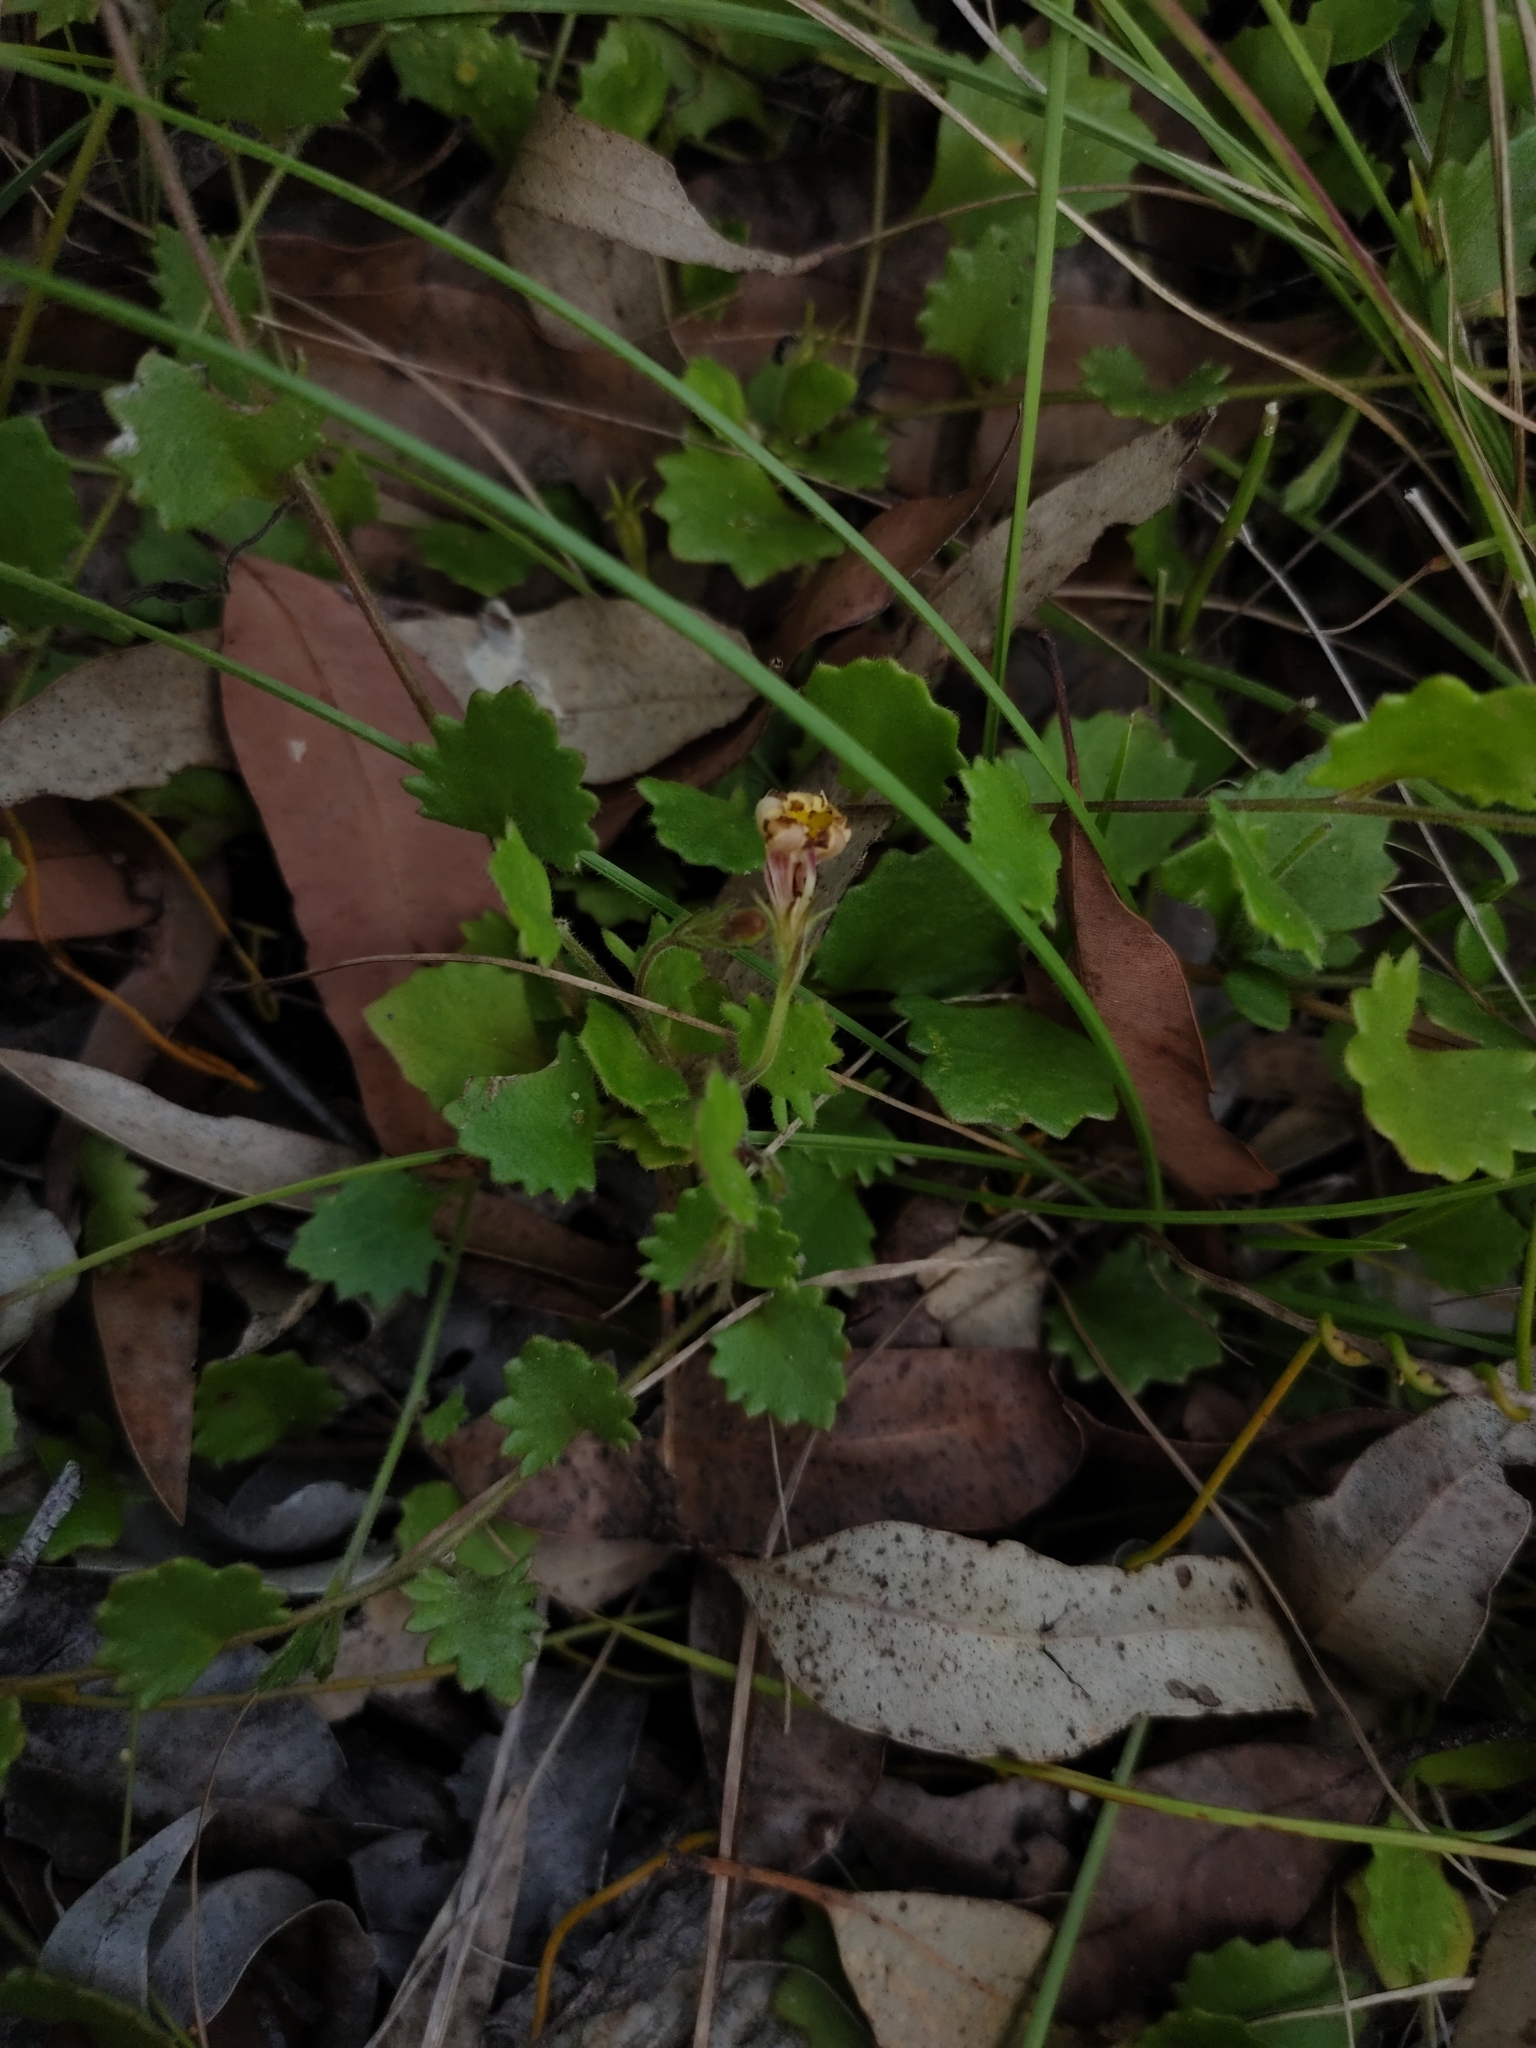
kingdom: Plantae
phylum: Tracheophyta
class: Magnoliopsida
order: Asterales
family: Goodeniaceae
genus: Goodenia
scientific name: Goodenia rotundifolia
